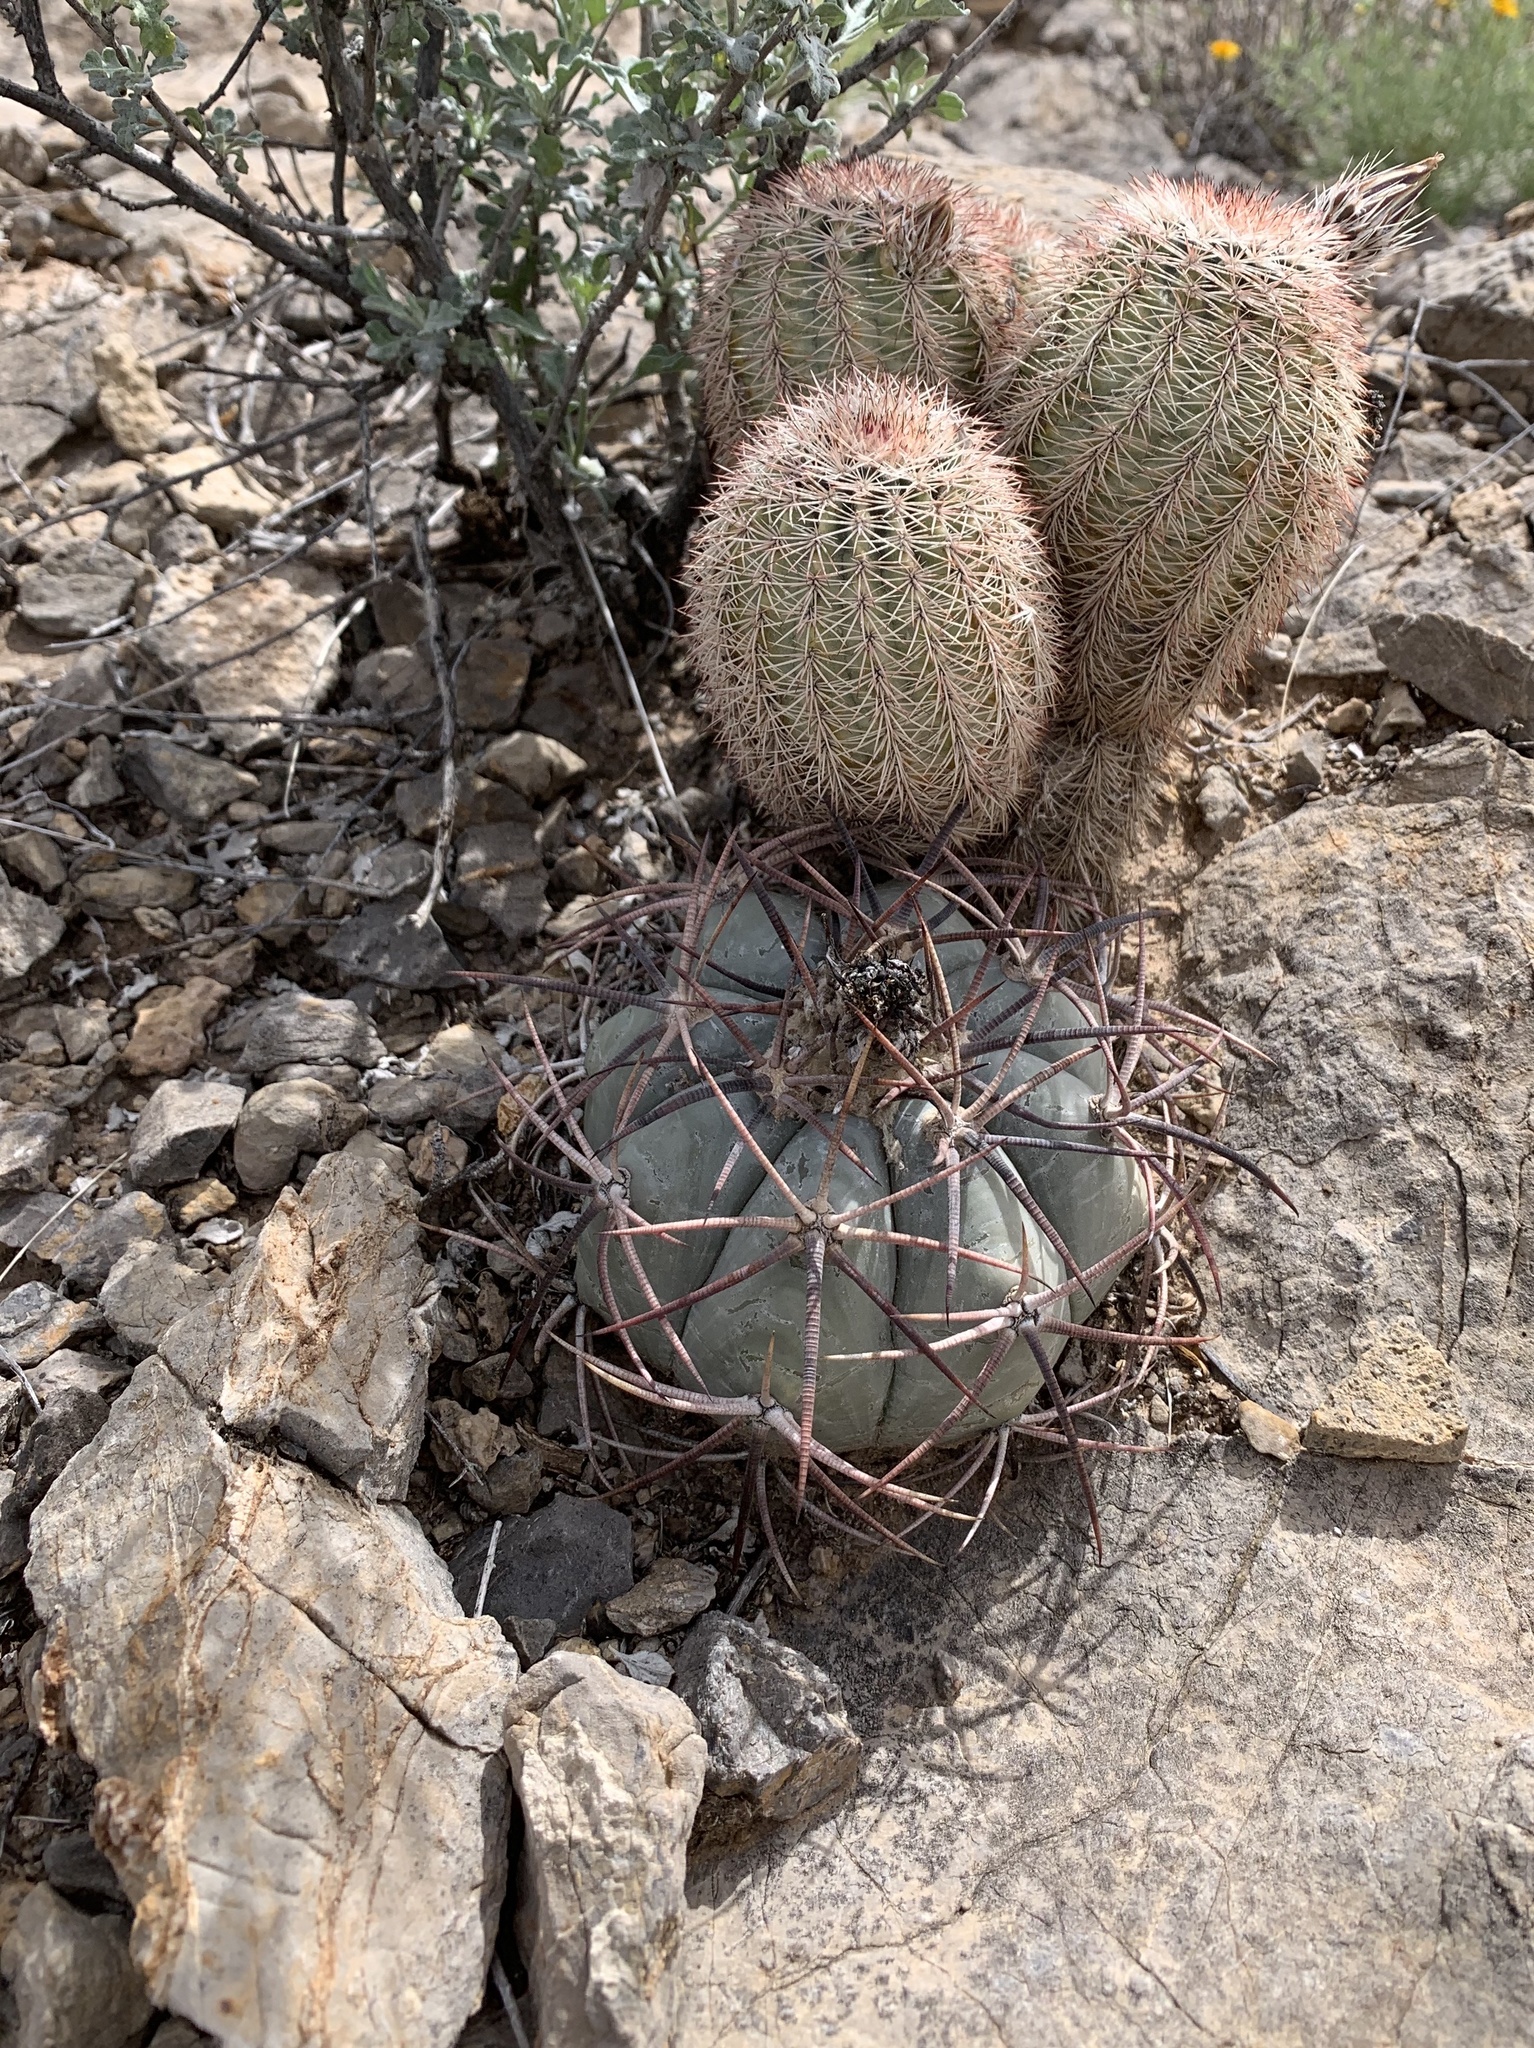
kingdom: Plantae
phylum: Tracheophyta
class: Magnoliopsida
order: Caryophyllales
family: Cactaceae
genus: Echinocactus
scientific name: Echinocactus horizonthalonius
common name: Devilshead
